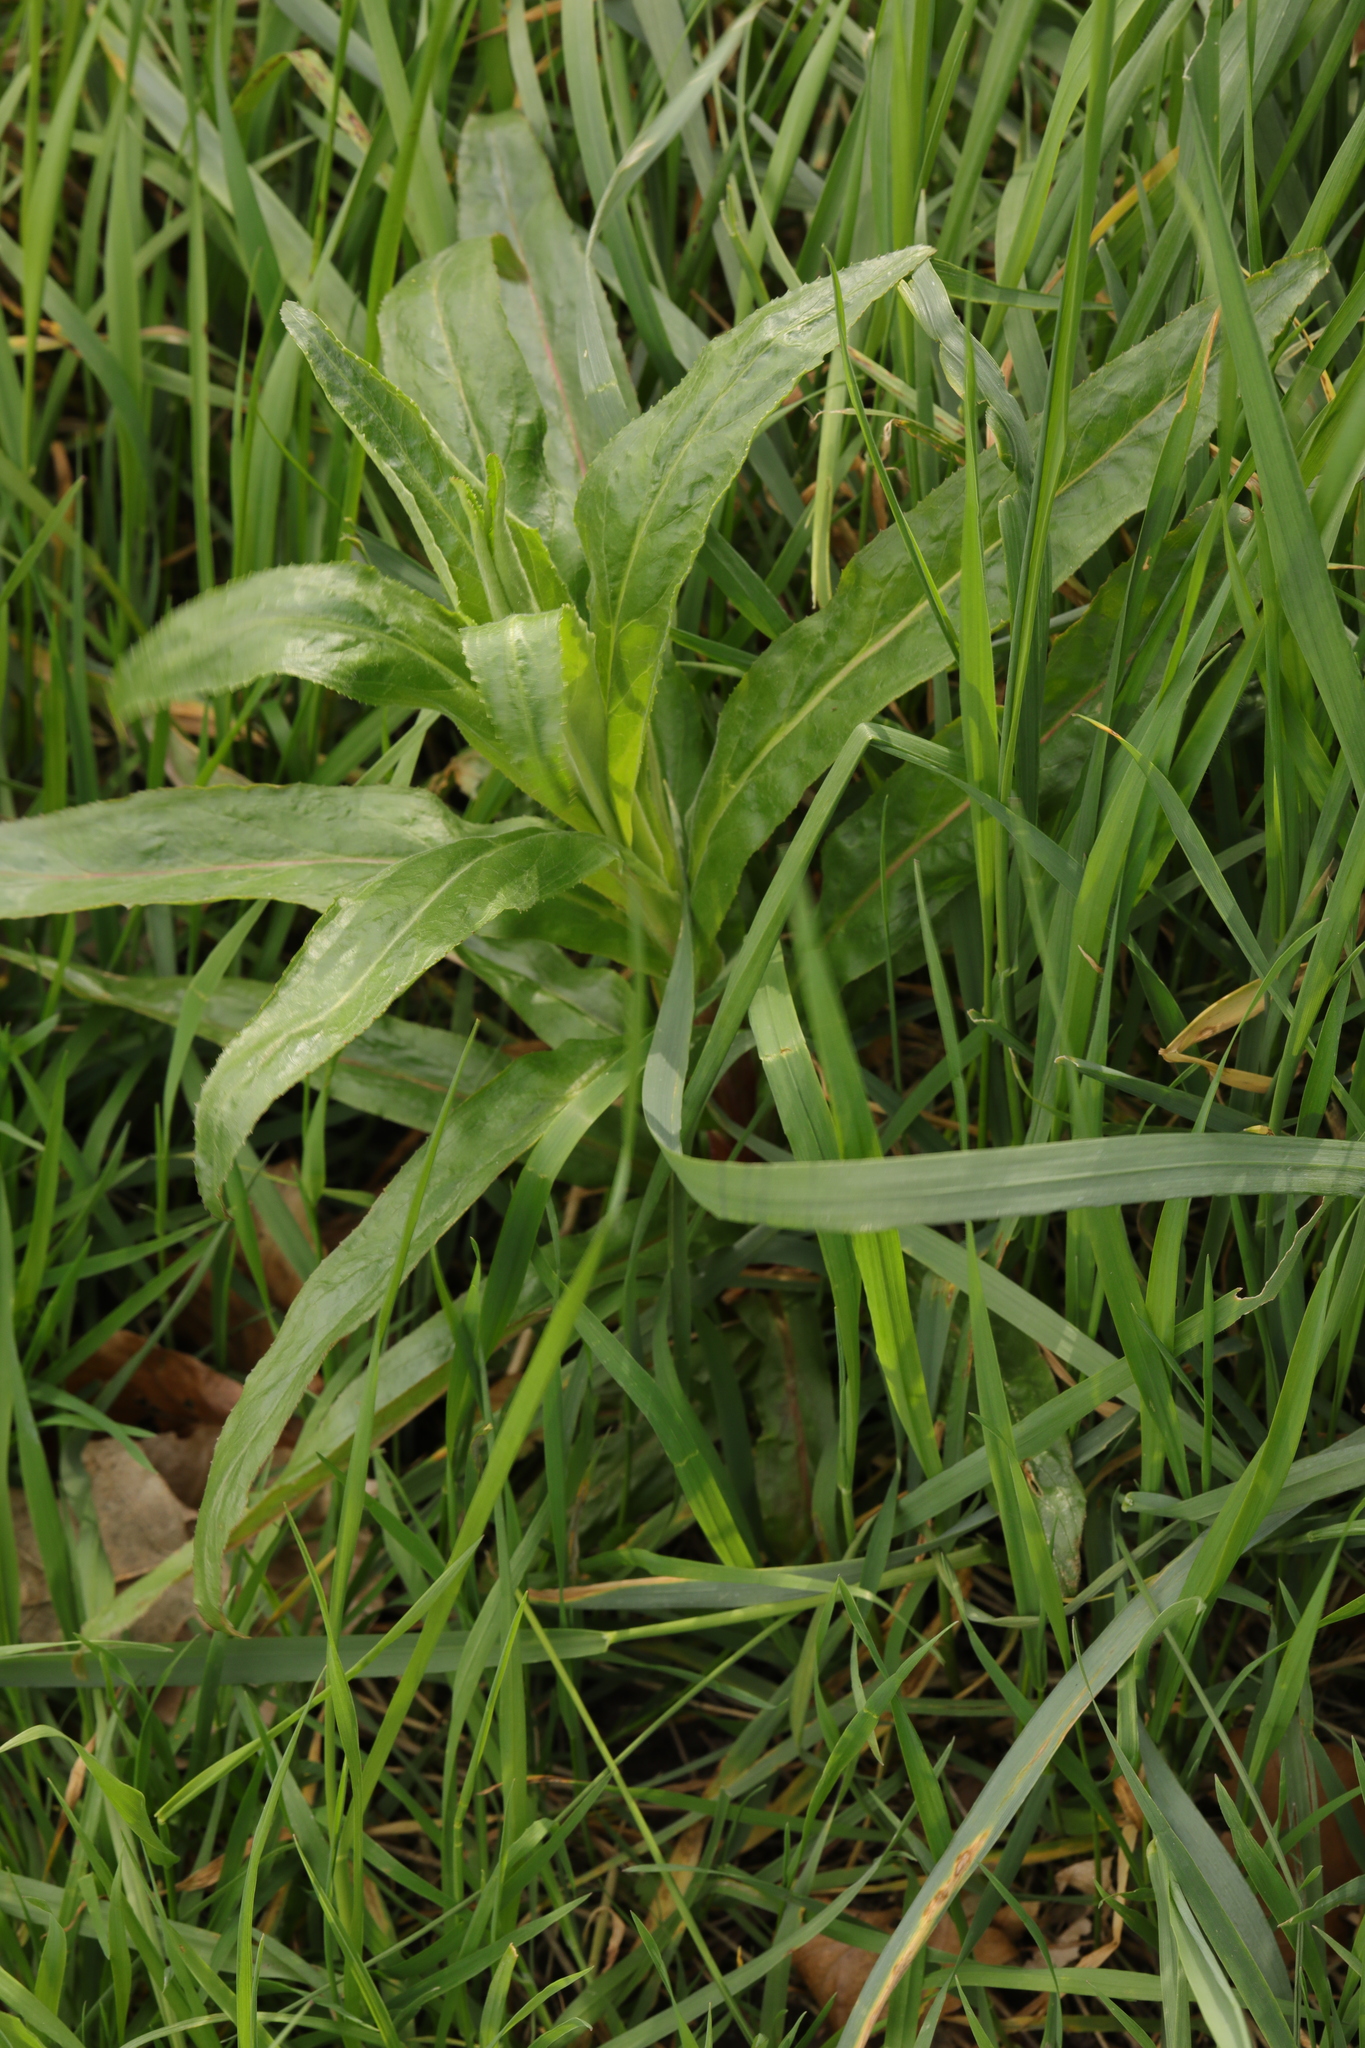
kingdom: Plantae
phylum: Tracheophyta
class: Magnoliopsida
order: Myrtales
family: Onagraceae
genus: Epilobium
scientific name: Epilobium hirsutum
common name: Great willowherb
